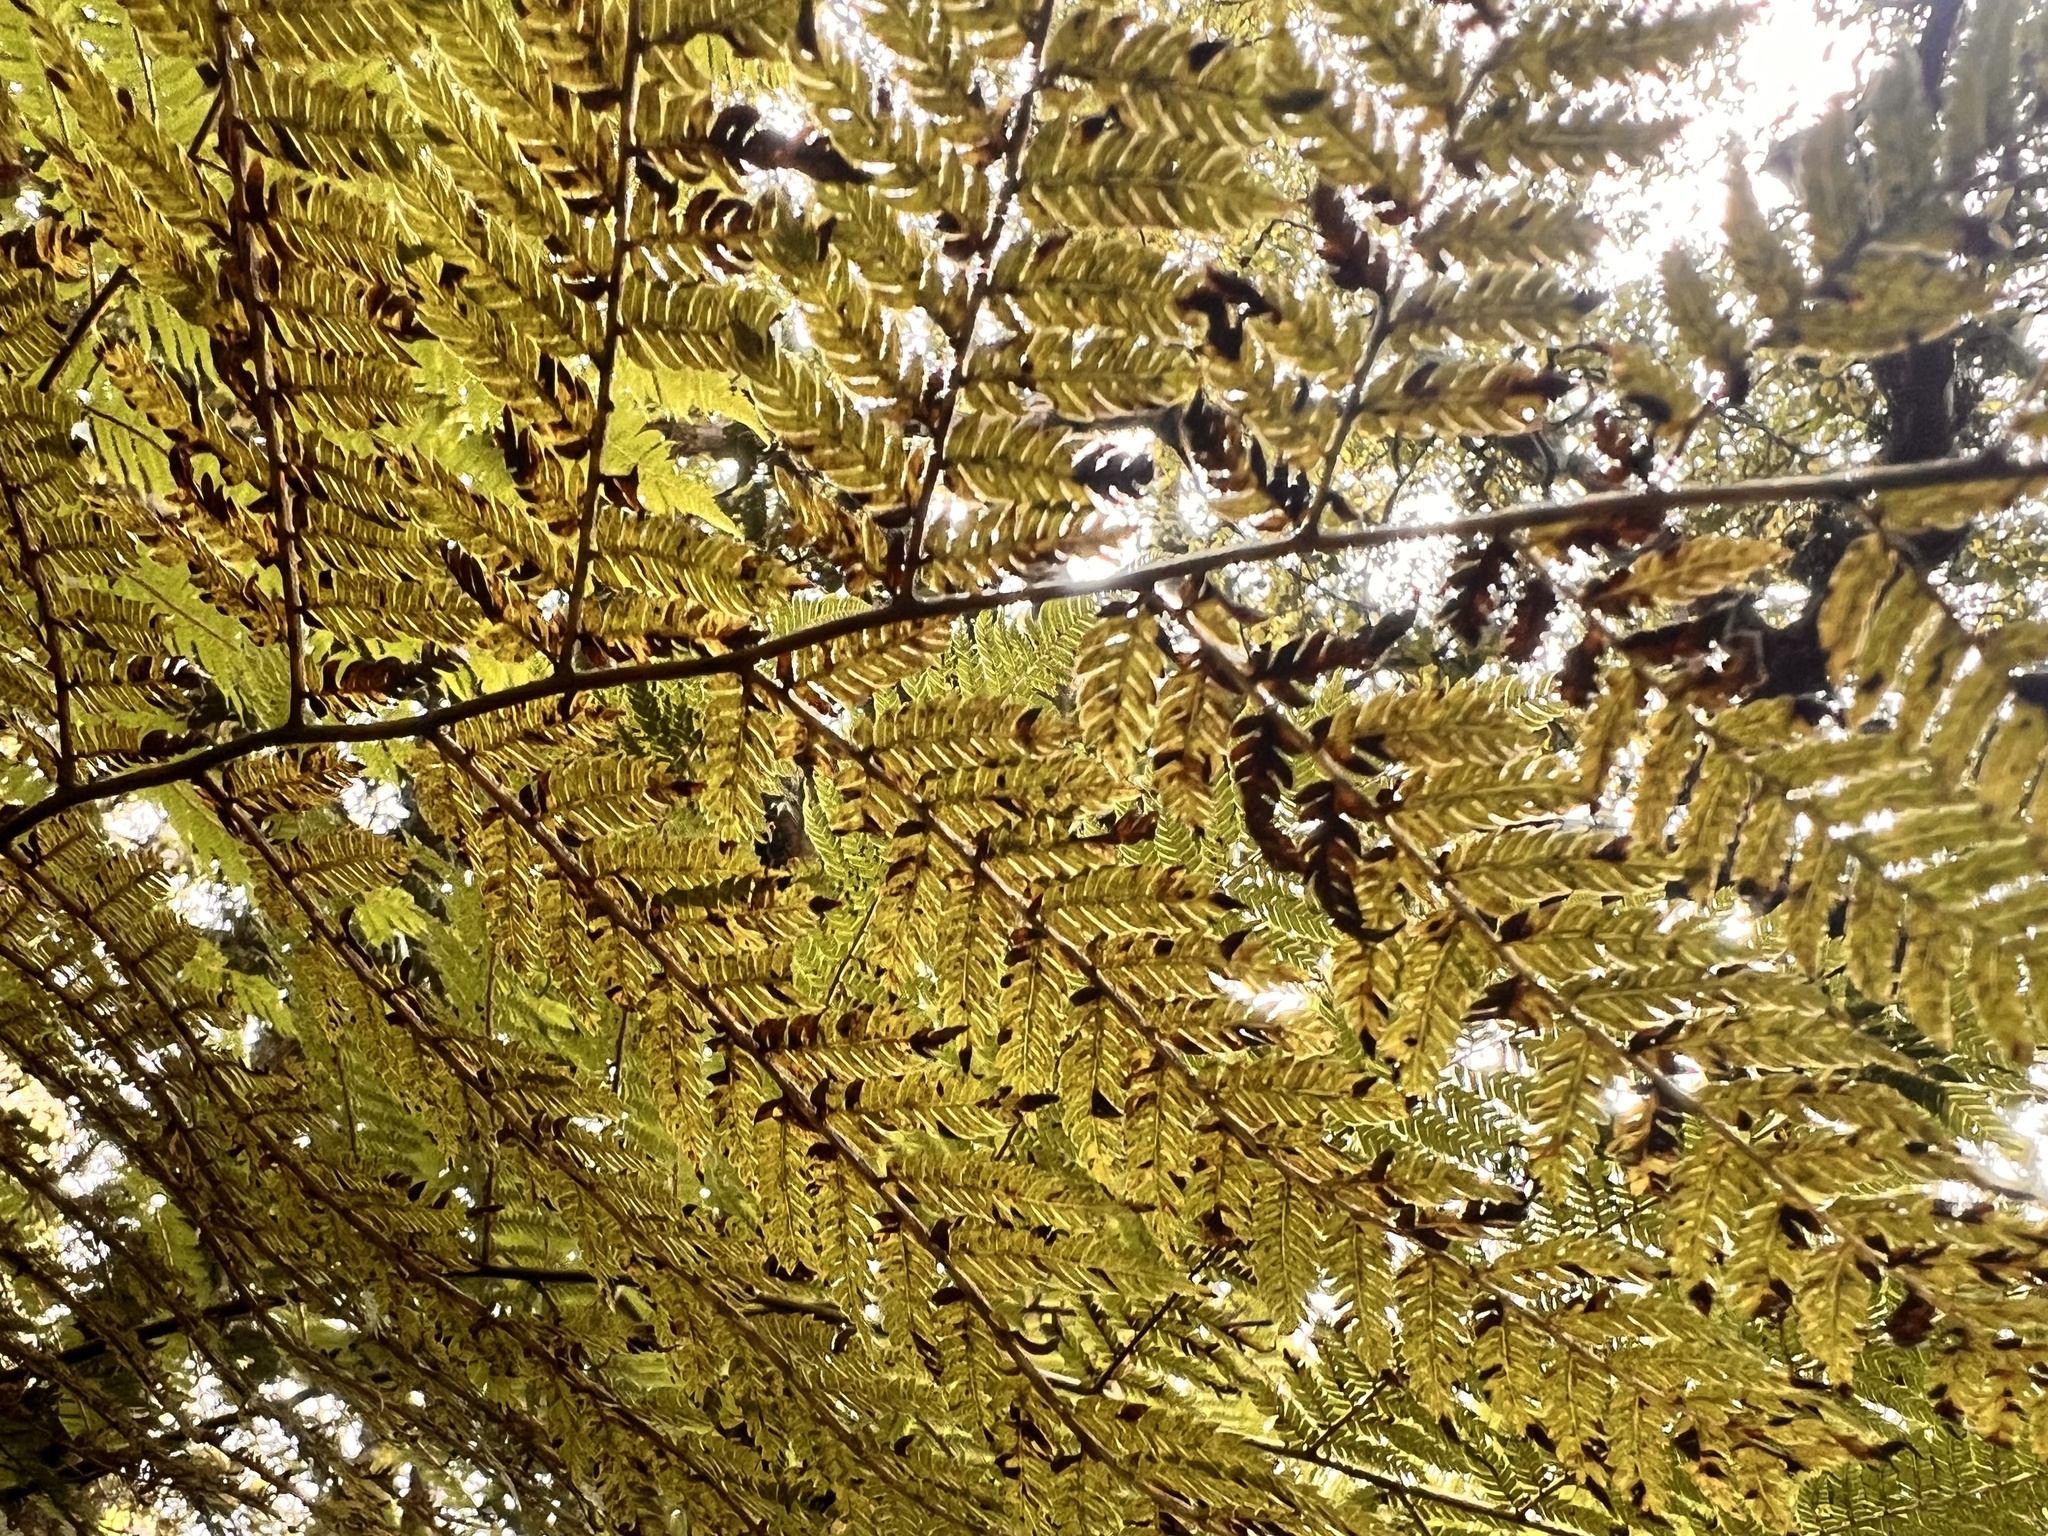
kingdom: Plantae
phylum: Tracheophyta
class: Polypodiopsida
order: Cyatheales
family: Cyatheaceae
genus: Alsophila
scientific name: Alsophila smithii
